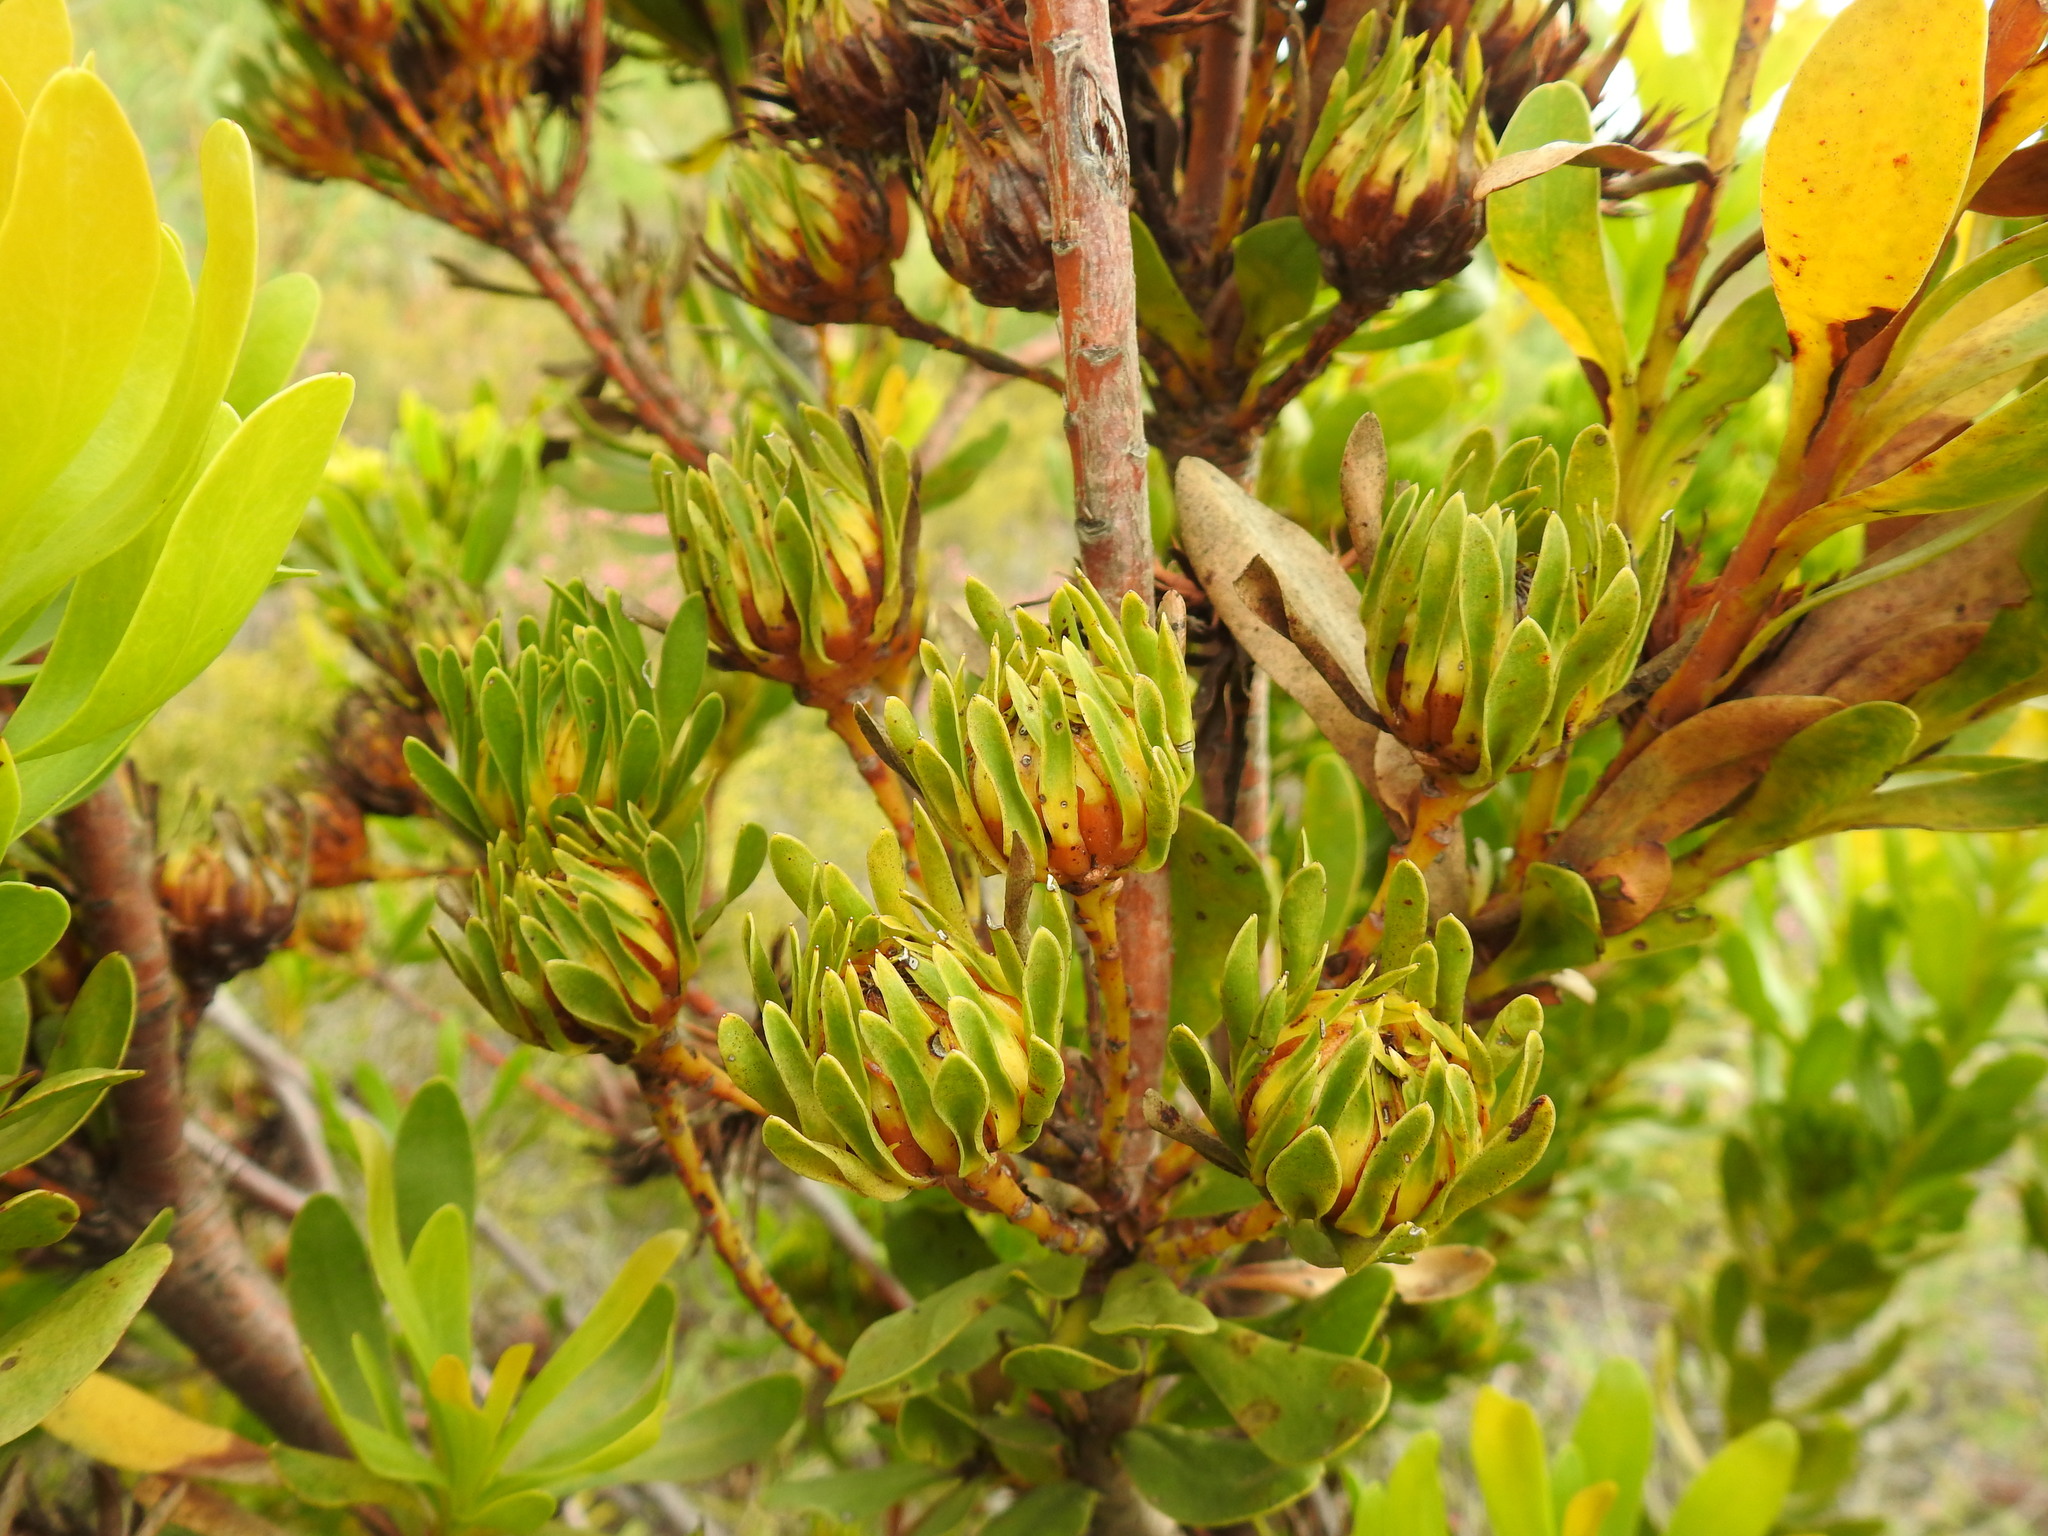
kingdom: Plantae
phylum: Tracheophyta
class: Magnoliopsida
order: Proteales
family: Proteaceae
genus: Aulax
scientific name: Aulax umbellata
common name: Broad-leaf featherbush
